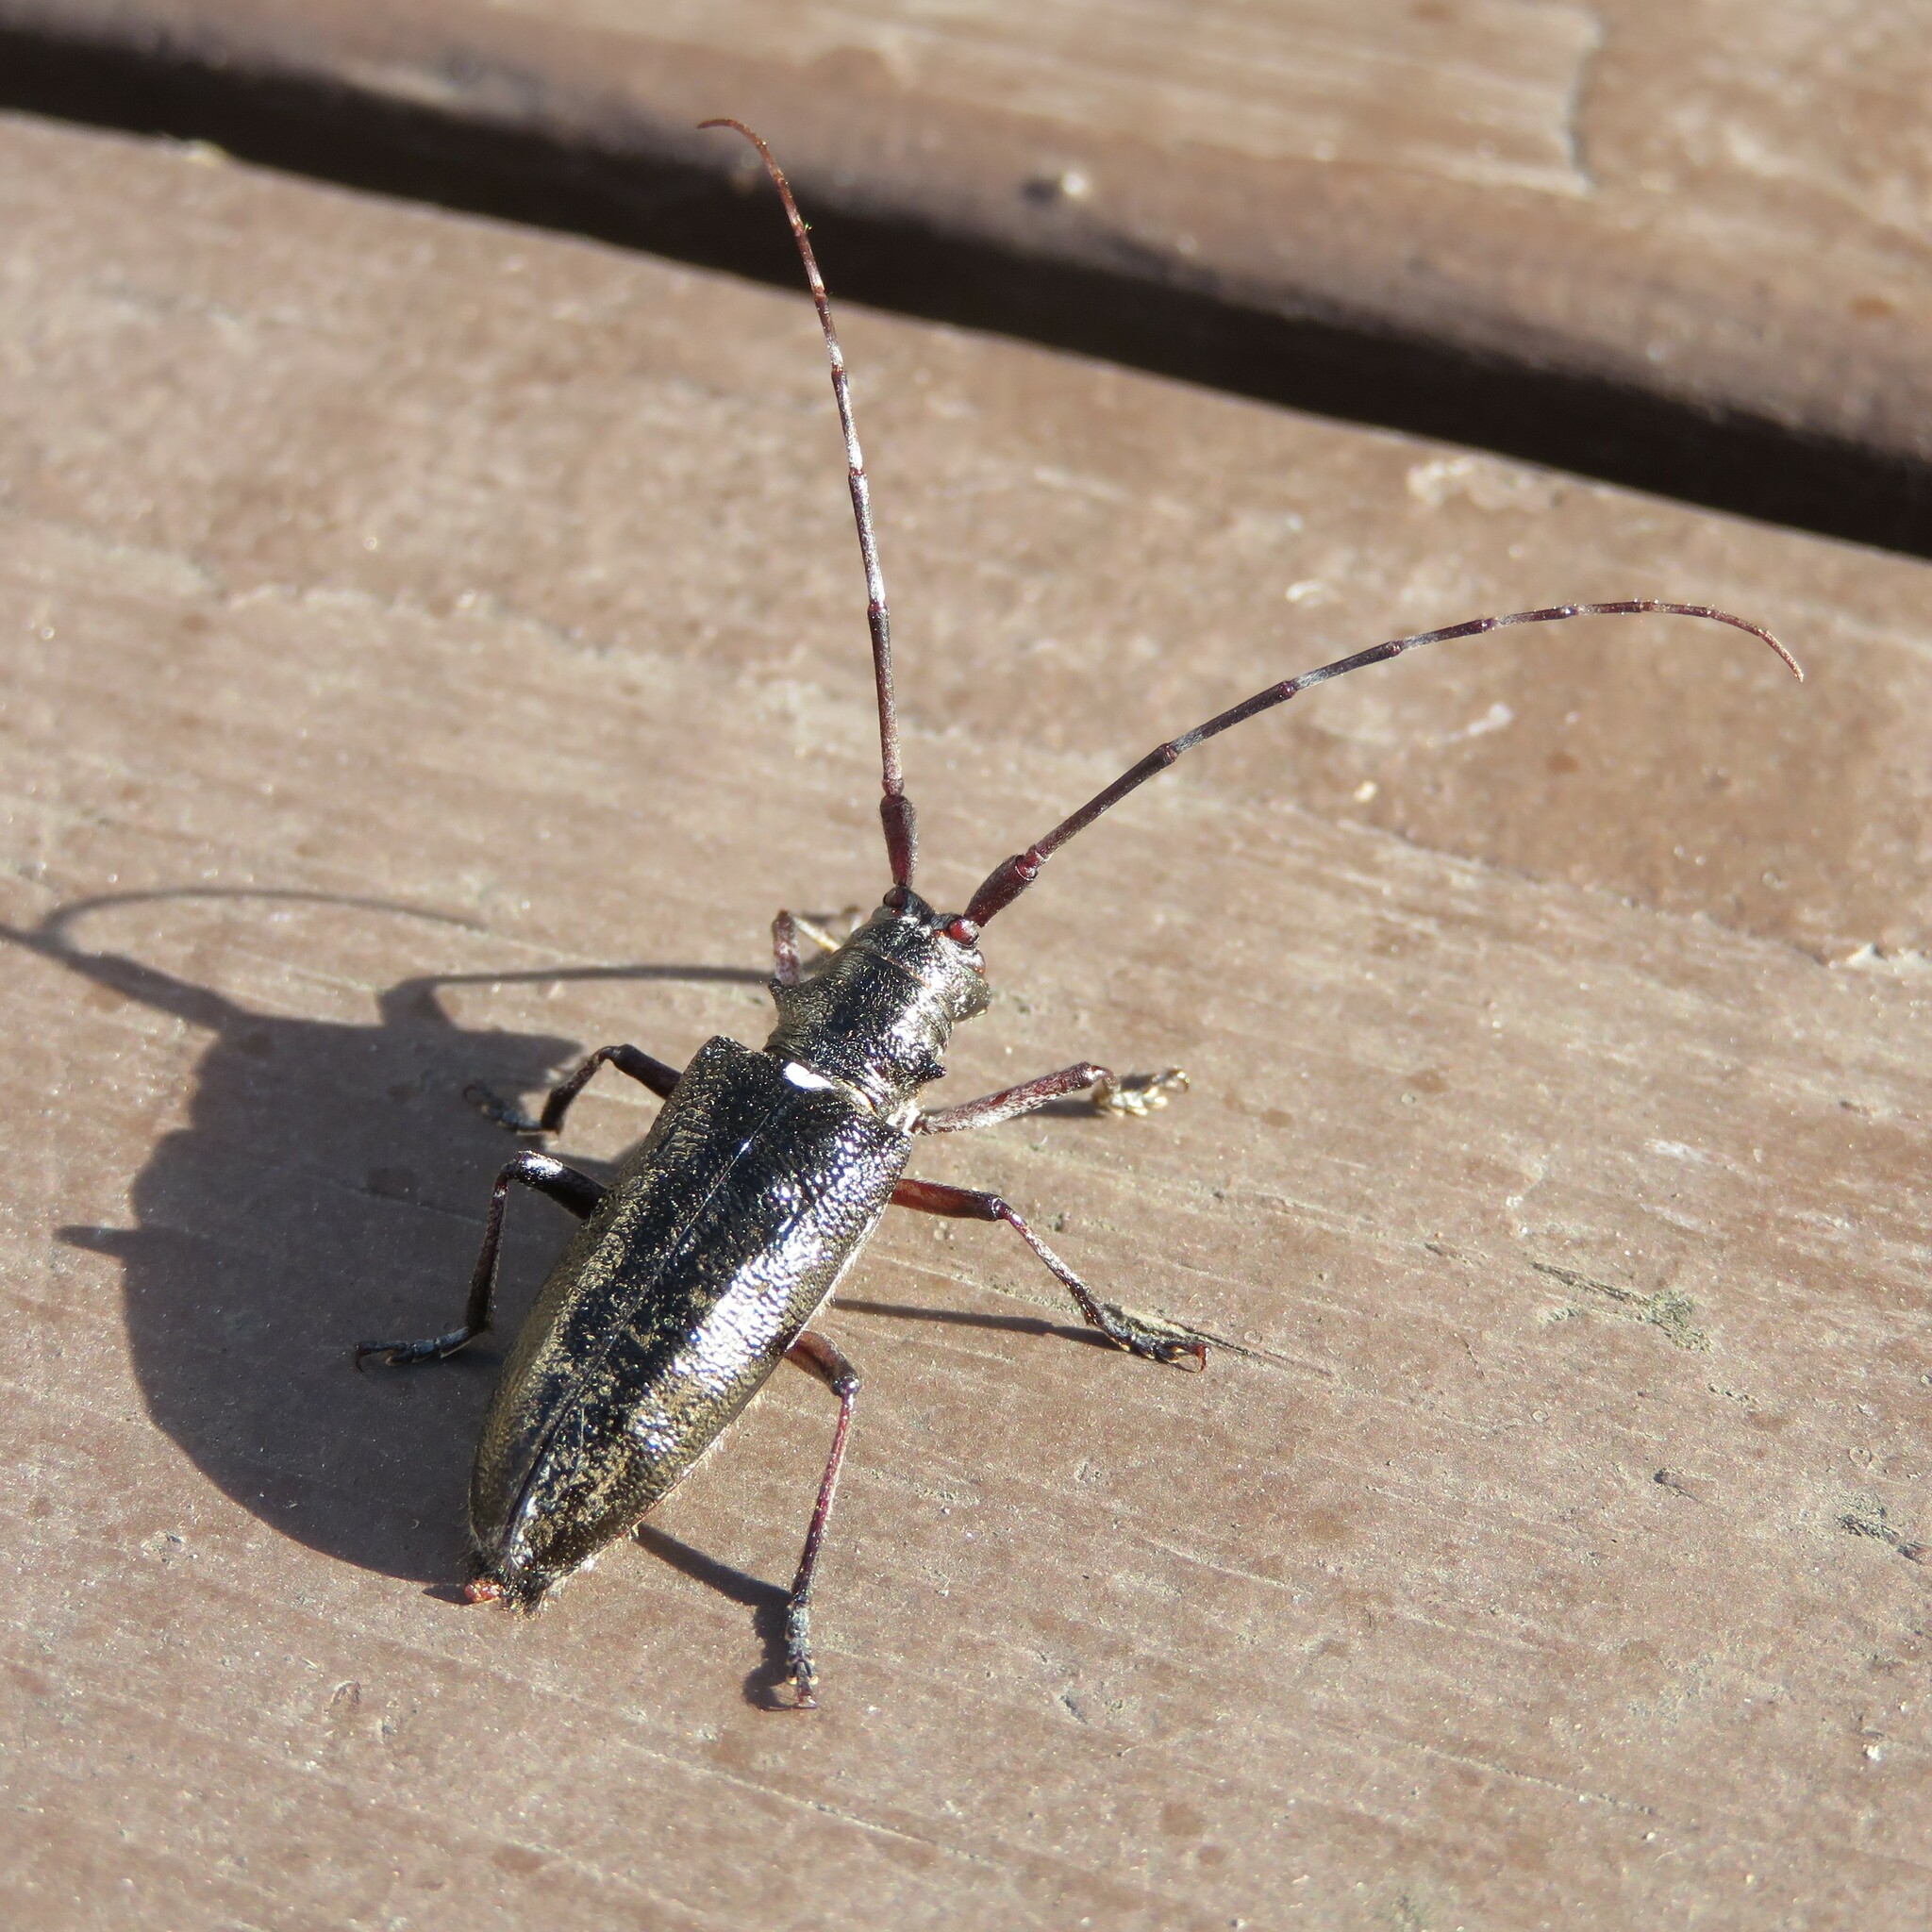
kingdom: Animalia
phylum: Arthropoda
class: Insecta
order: Coleoptera
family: Cerambycidae
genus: Monochamus
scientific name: Monochamus scutellatus
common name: White-spotted sawyer beetle
